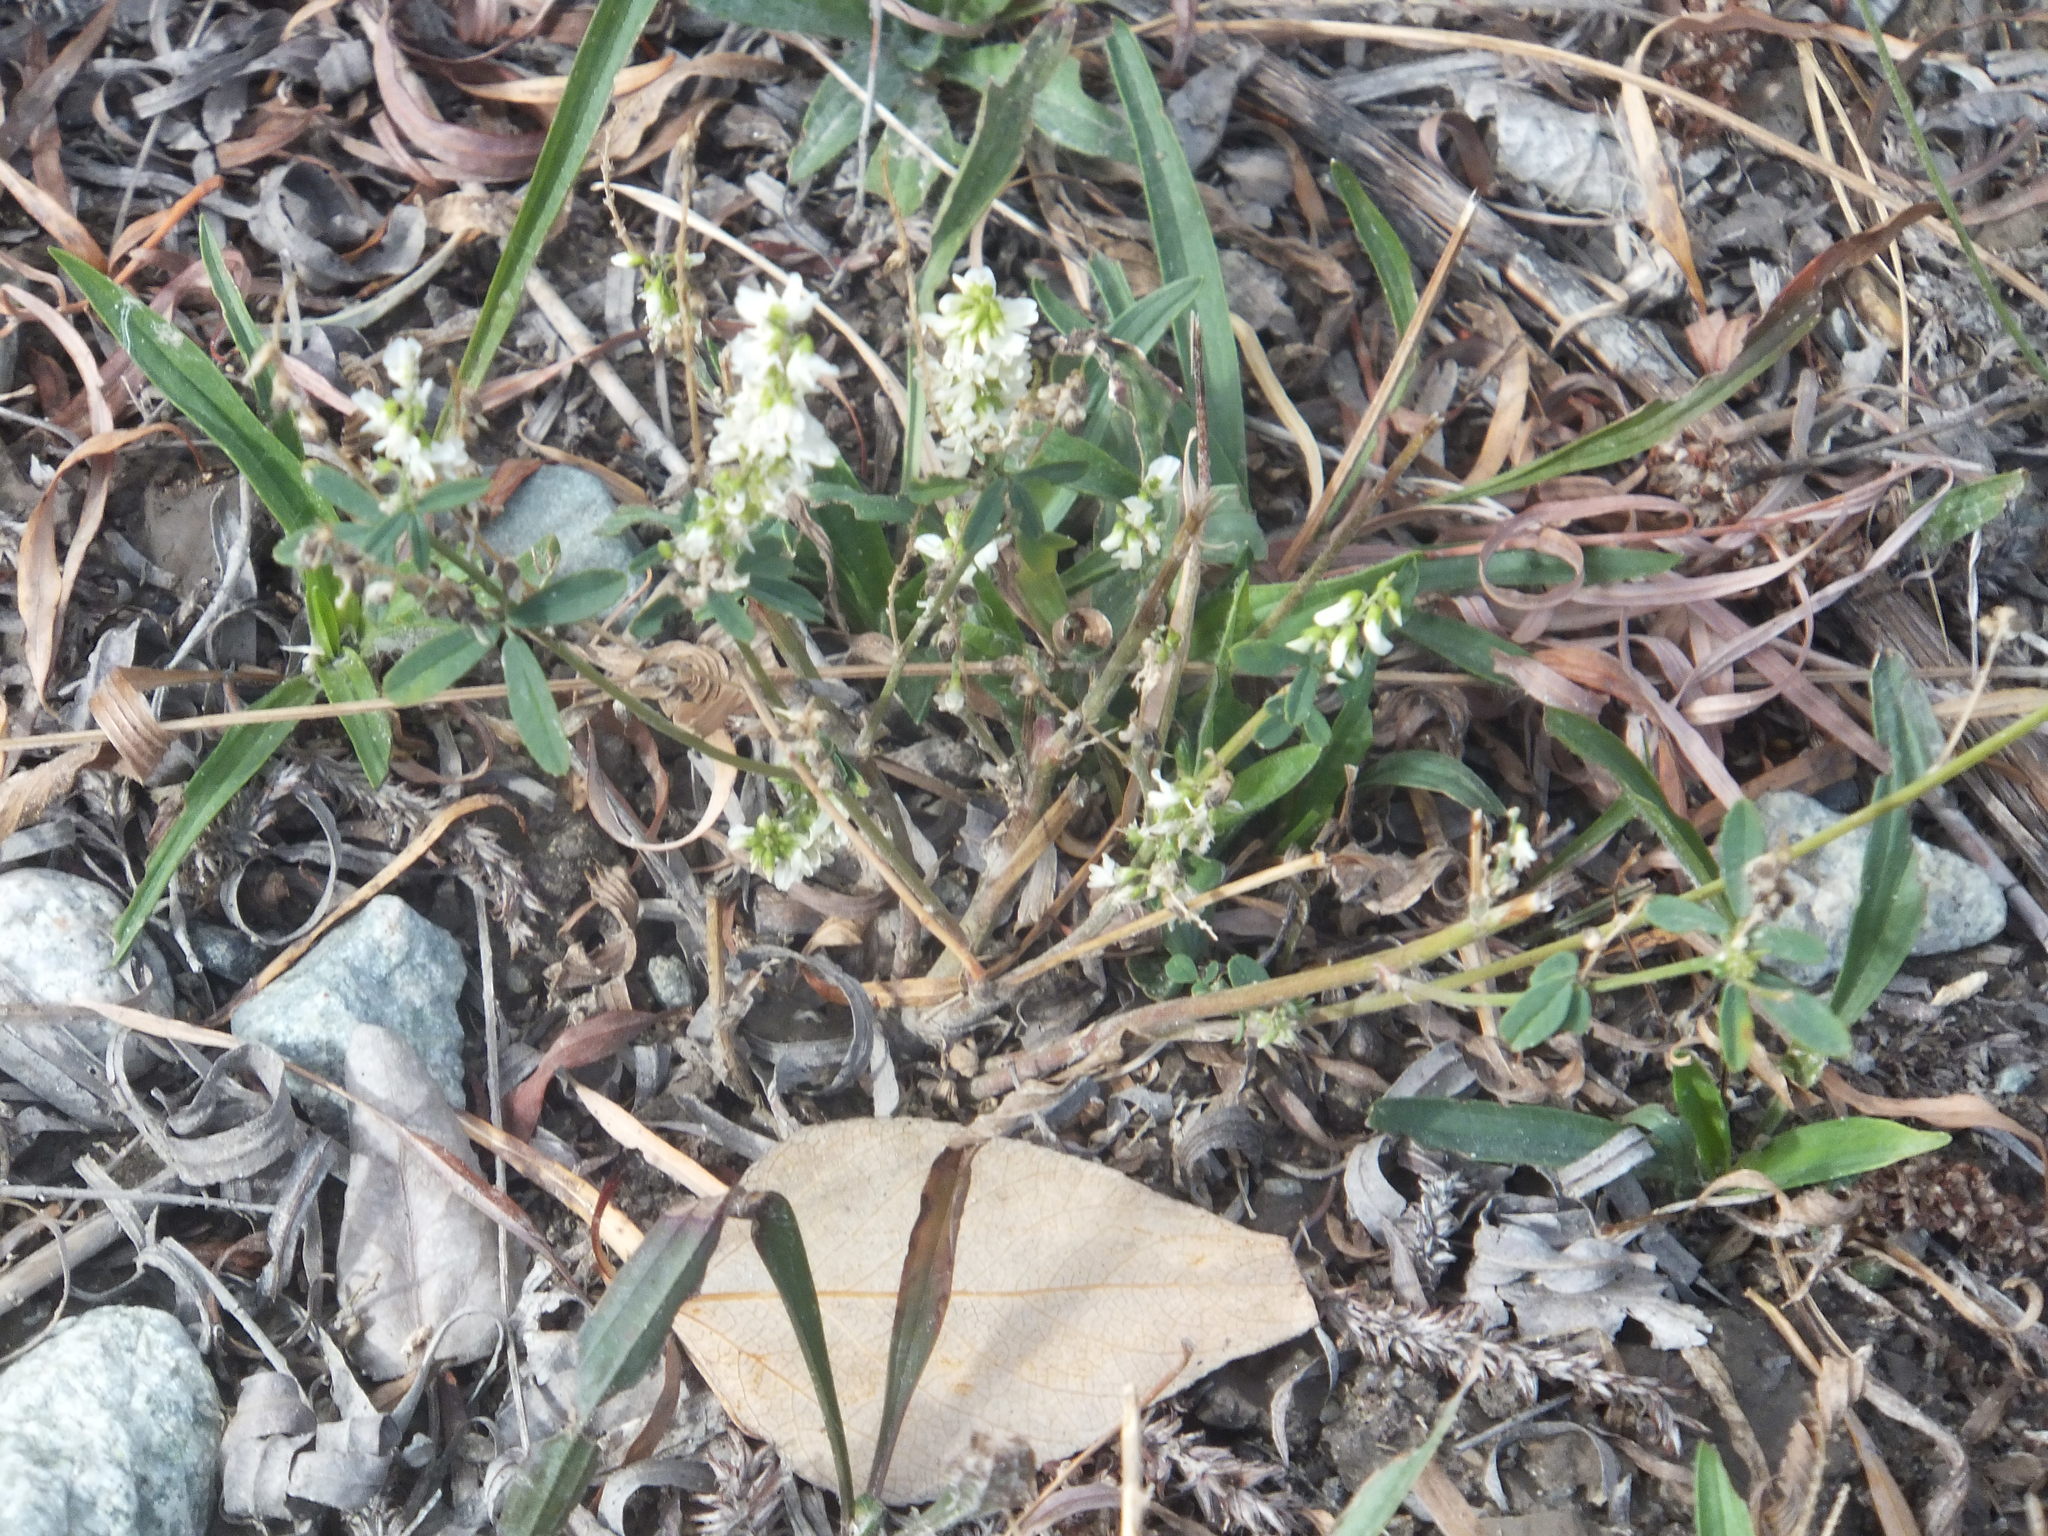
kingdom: Plantae
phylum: Tracheophyta
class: Magnoliopsida
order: Fabales
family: Fabaceae
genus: Melilotus
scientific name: Melilotus albus
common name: White melilot
